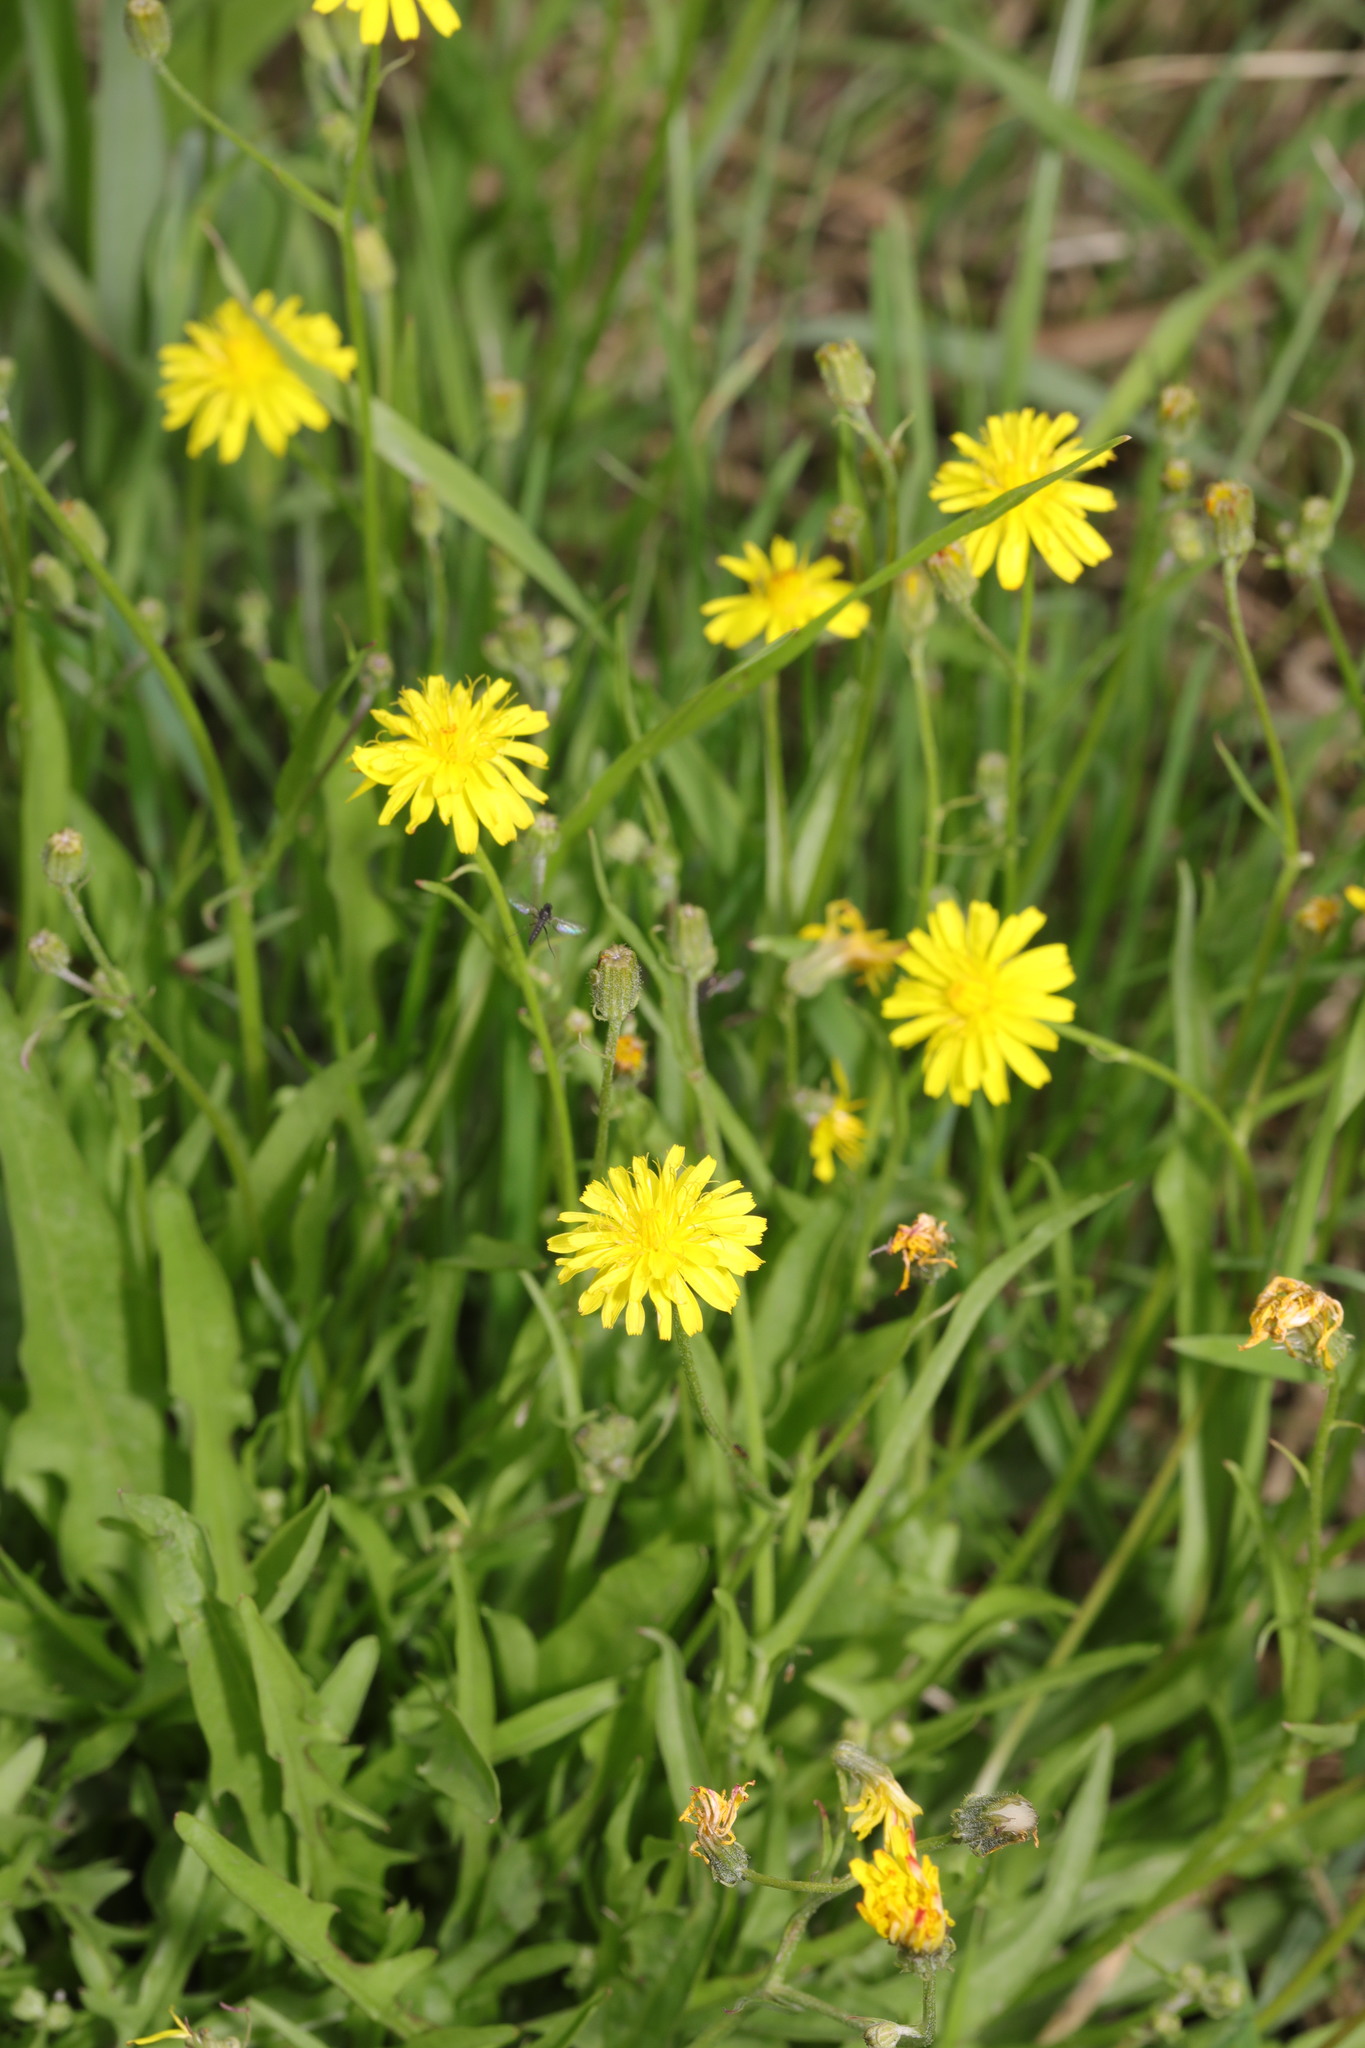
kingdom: Plantae
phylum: Tracheophyta
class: Magnoliopsida
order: Asterales
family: Asteraceae
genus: Crepis
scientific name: Crepis capillaris
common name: Smooth hawksbeard
